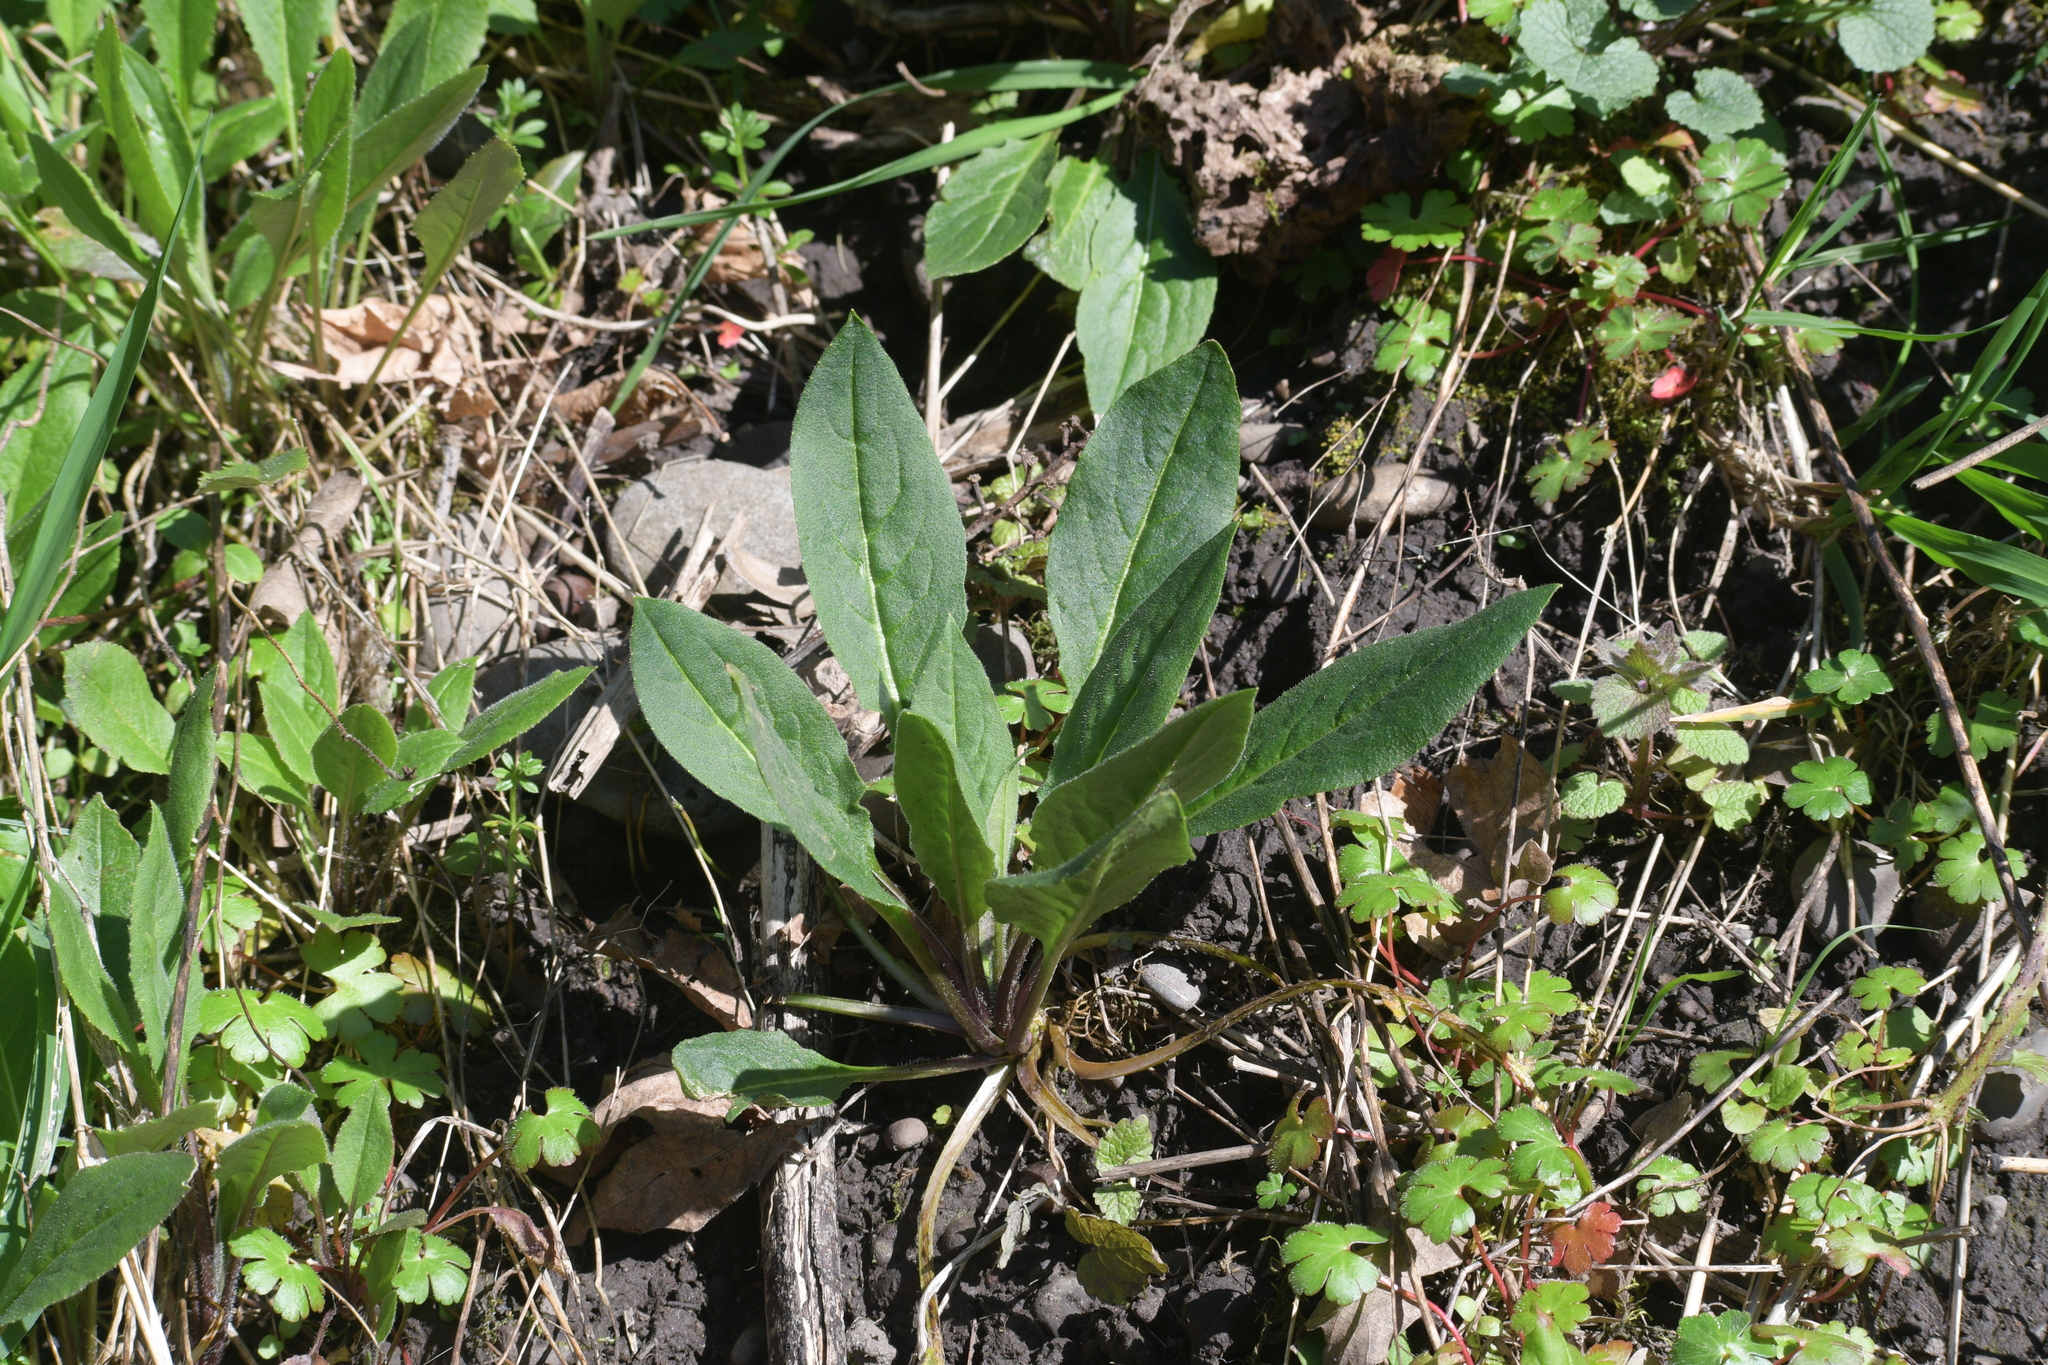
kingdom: Plantae
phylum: Tracheophyta
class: Magnoliopsida
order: Brassicales
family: Brassicaceae
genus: Hesperis
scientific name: Hesperis matronalis
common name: Dame's-violet
